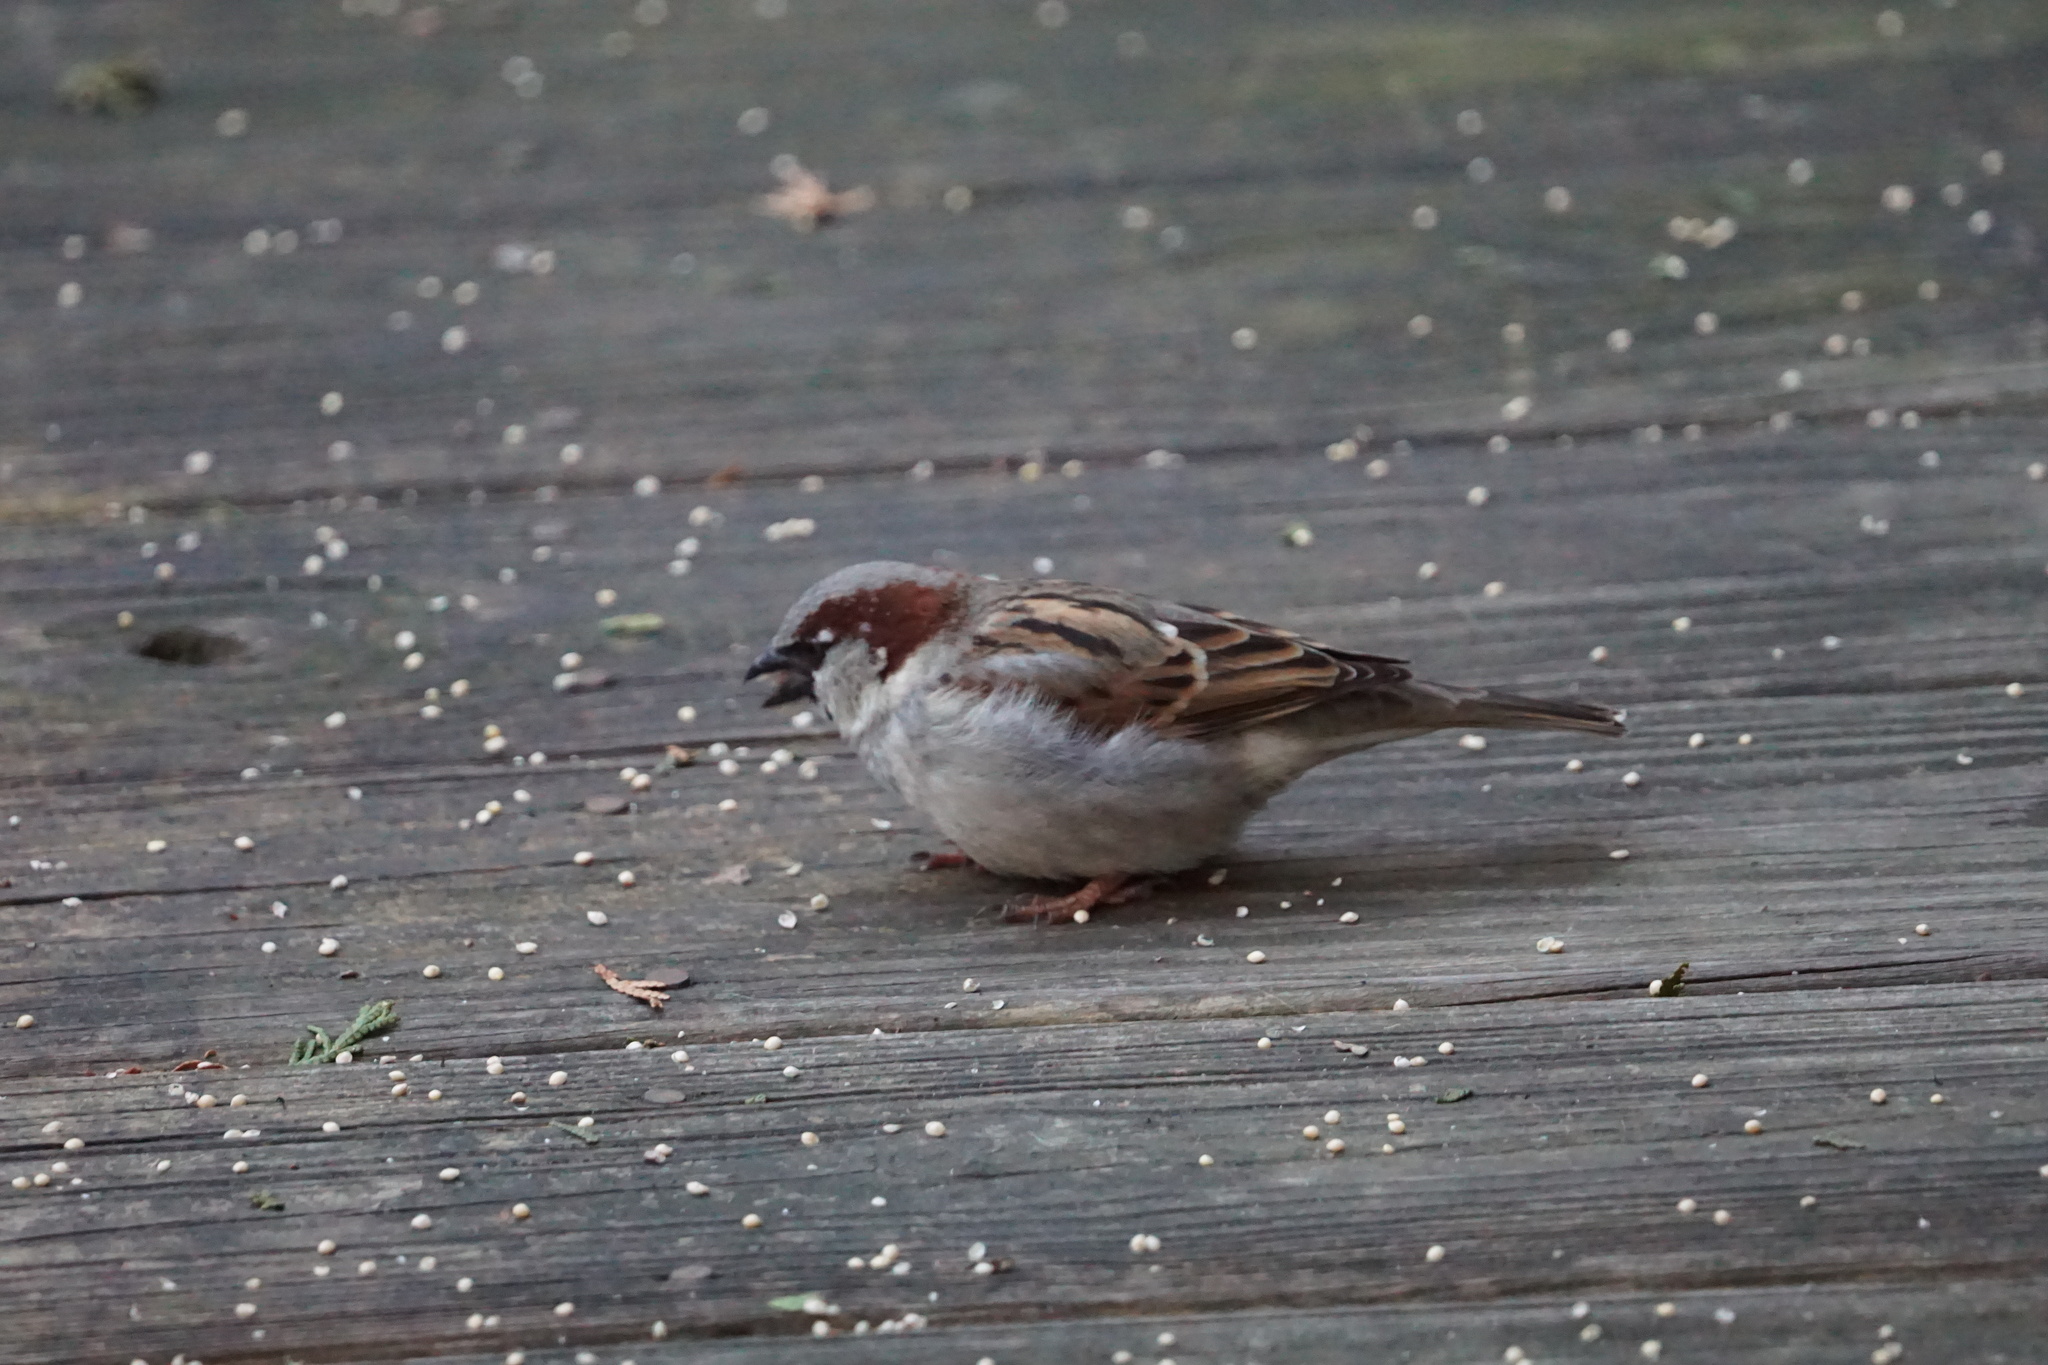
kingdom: Animalia
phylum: Chordata
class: Aves
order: Passeriformes
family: Passeridae
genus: Passer
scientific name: Passer domesticus
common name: House sparrow
